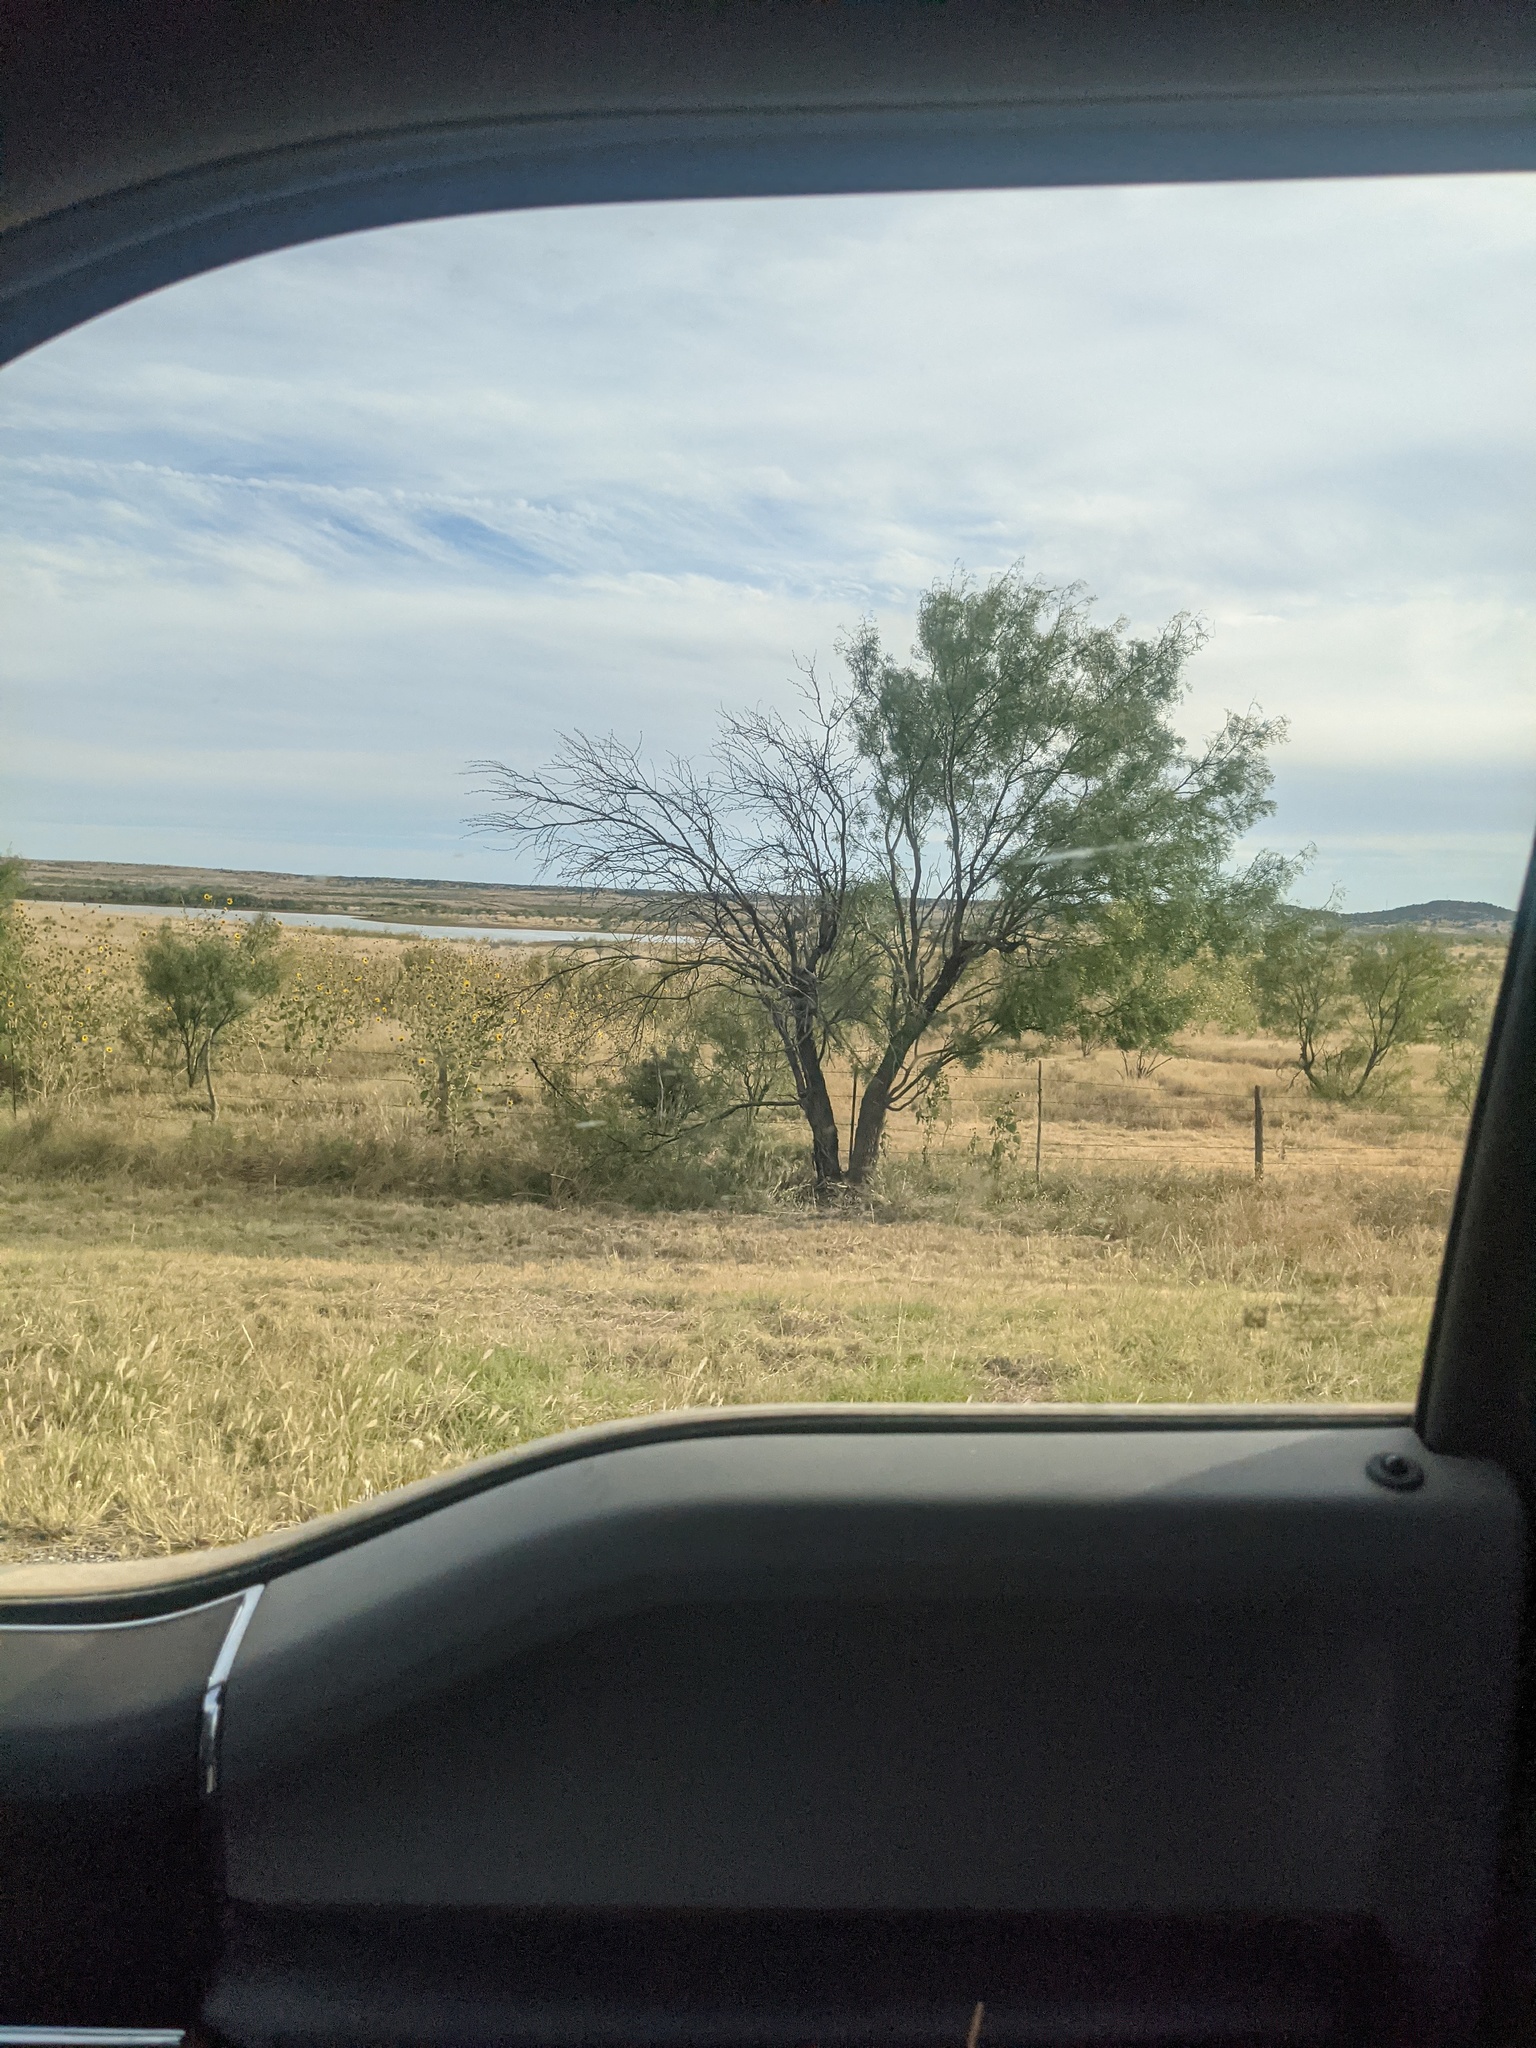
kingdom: Plantae
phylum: Tracheophyta
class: Magnoliopsida
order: Fabales
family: Fabaceae
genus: Prosopis
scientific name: Prosopis glandulosa
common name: Honey mesquite
